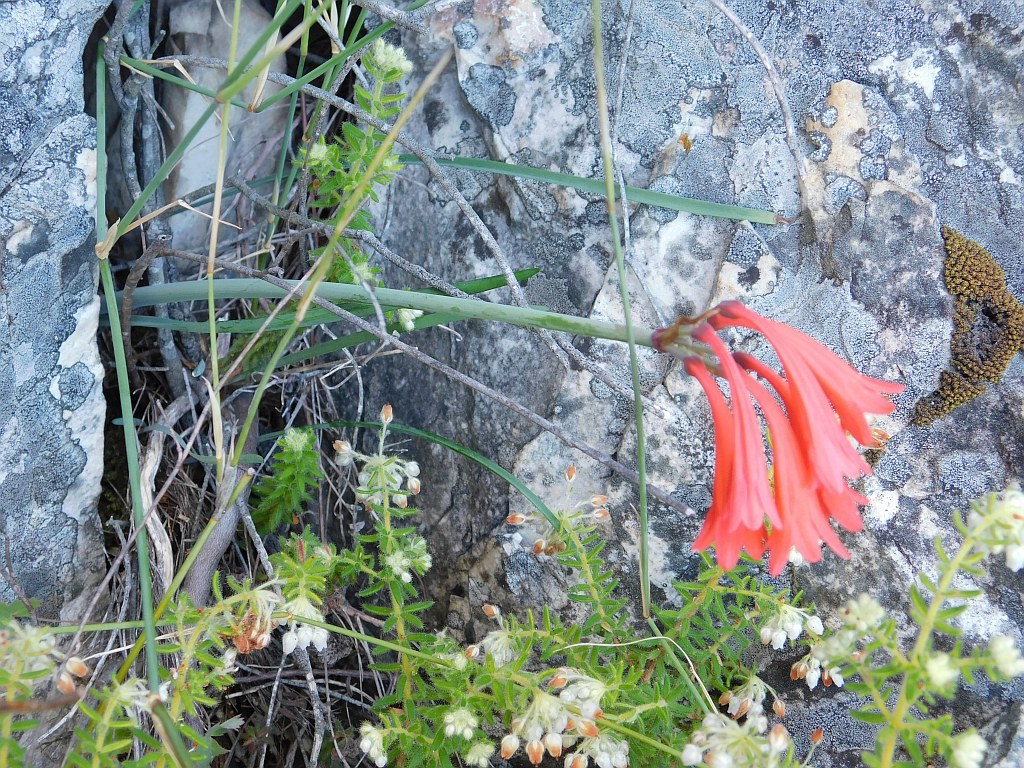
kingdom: Plantae
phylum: Tracheophyta
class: Liliopsida
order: Asparagales
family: Amaryllidaceae
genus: Cyrtanthus
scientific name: Cyrtanthus collinus
